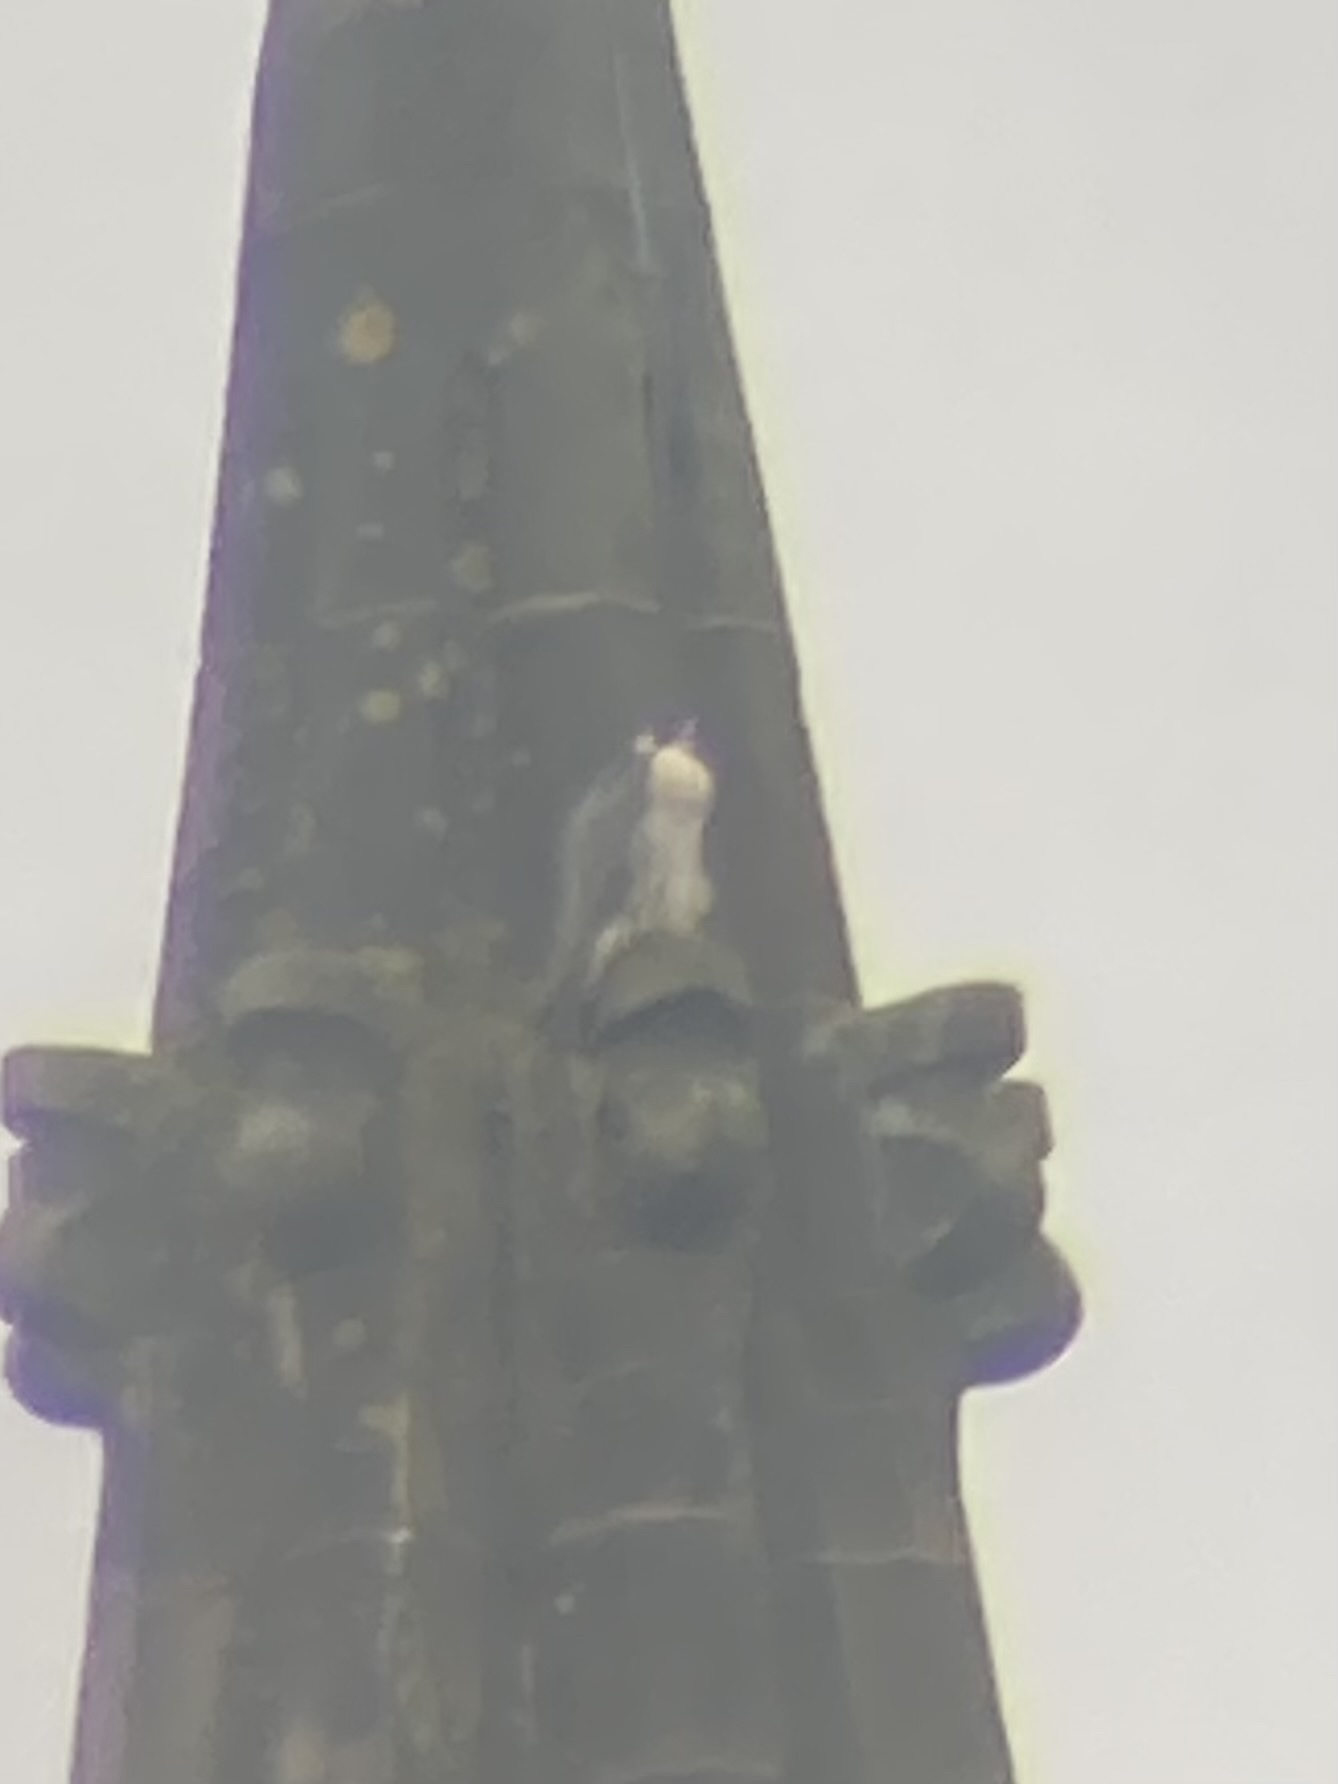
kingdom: Animalia
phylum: Chordata
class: Aves
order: Falconiformes
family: Falconidae
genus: Falco
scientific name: Falco peregrinus
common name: Peregrine falcon
